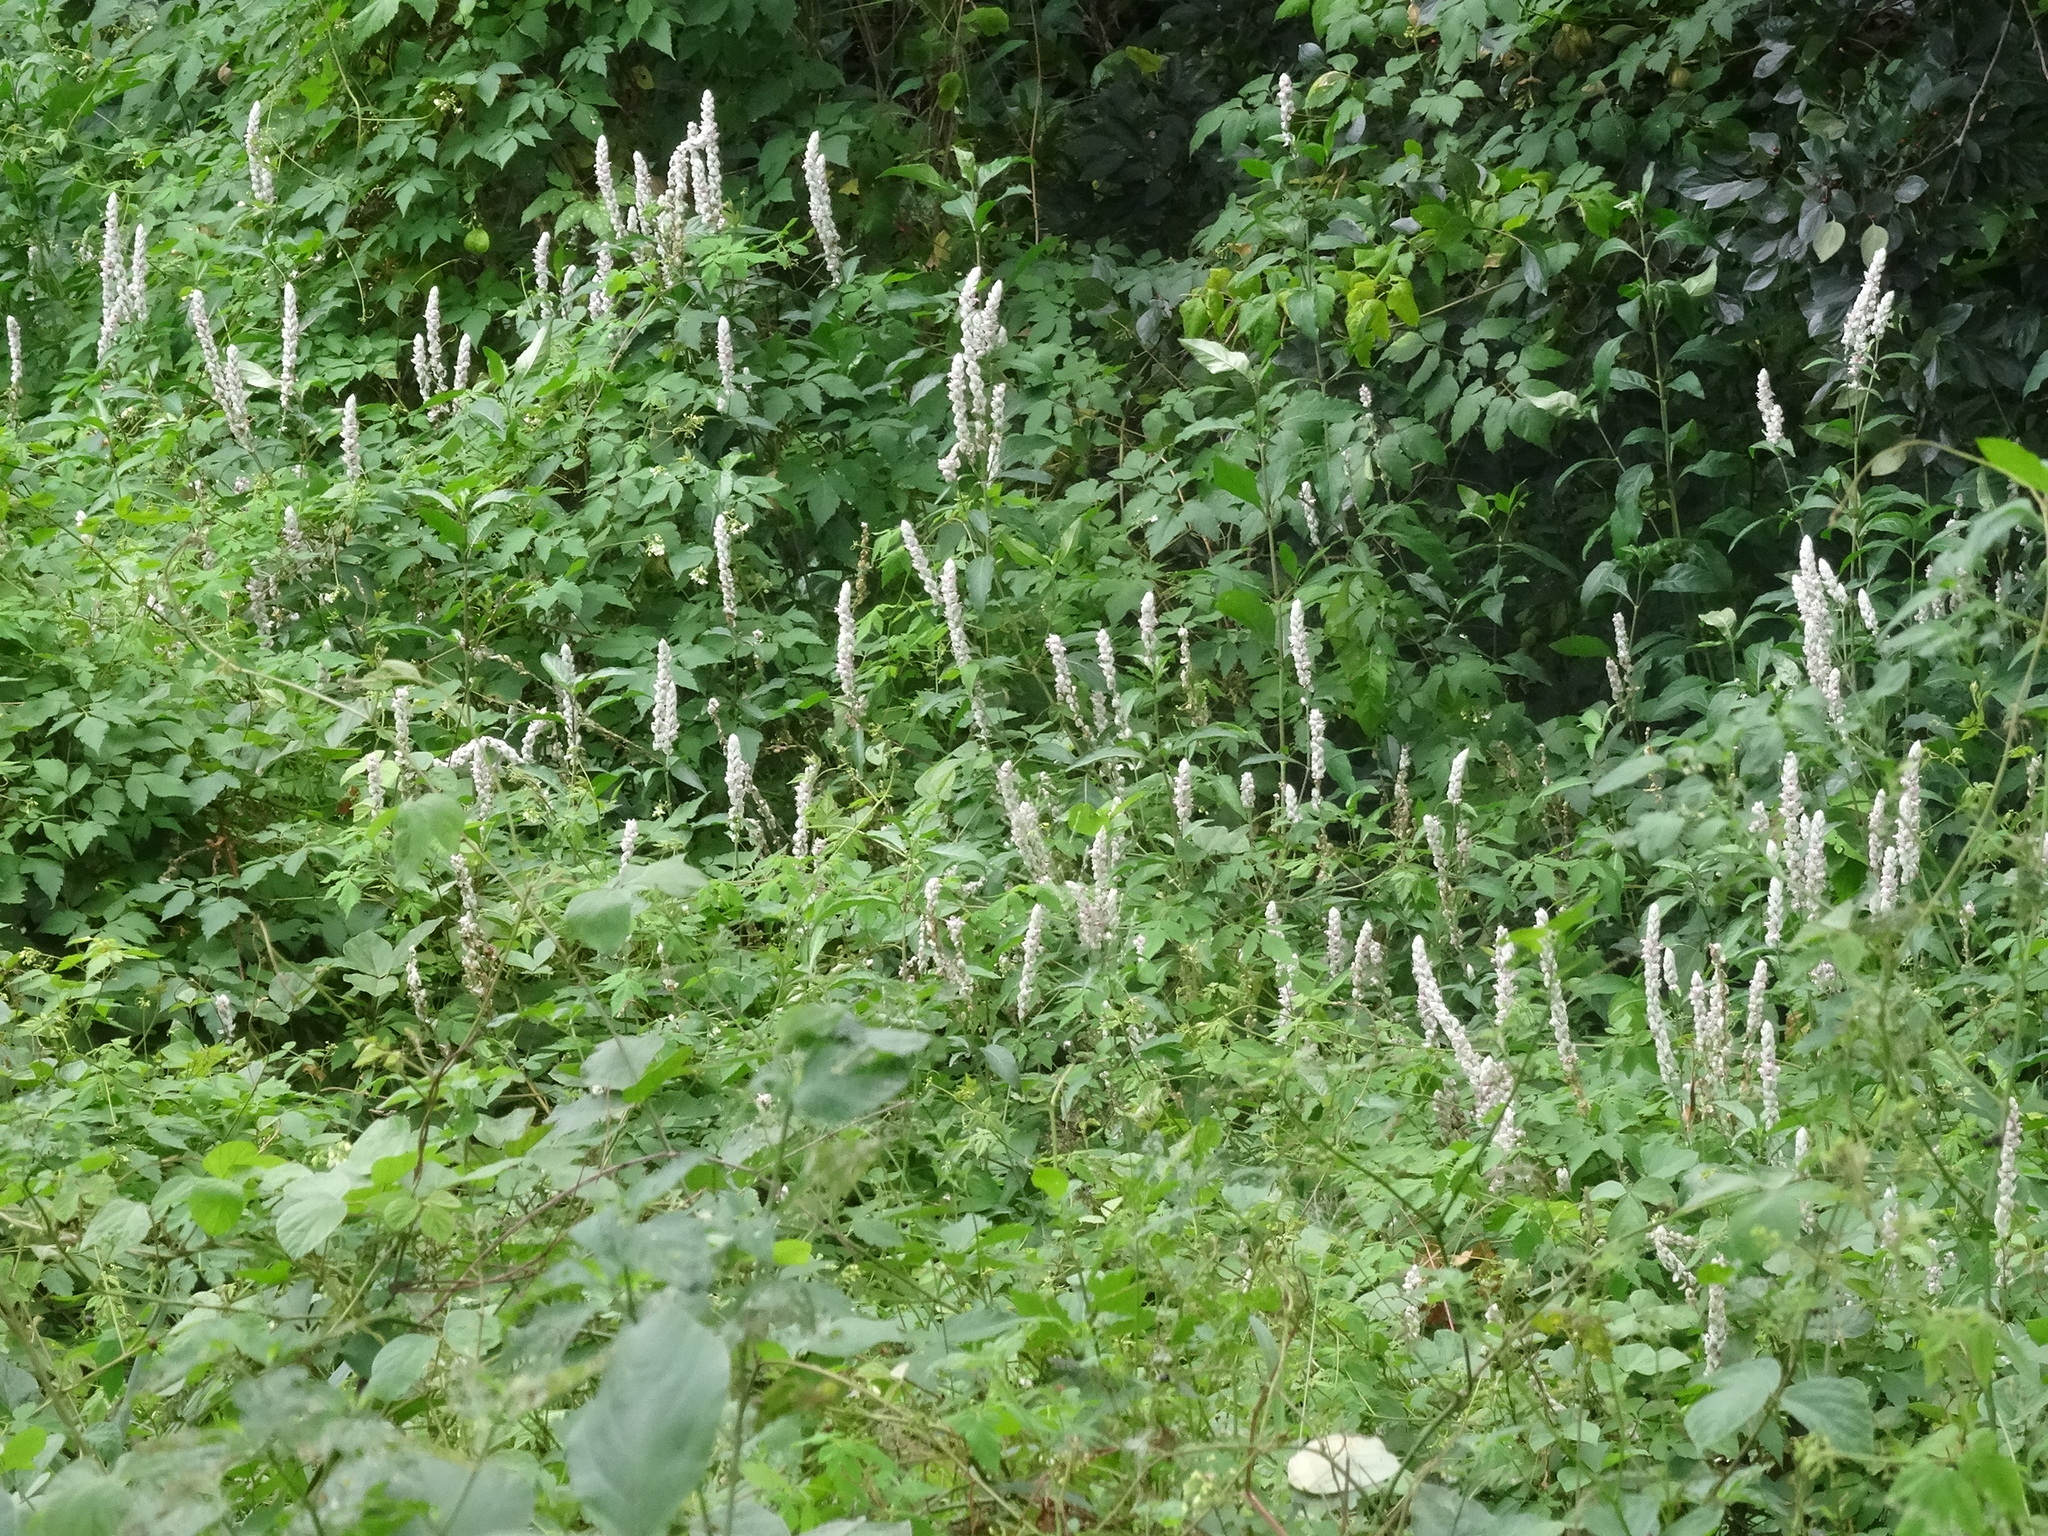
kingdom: Plantae
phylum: Tracheophyta
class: Magnoliopsida
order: Lamiales
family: Acanthaceae
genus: Justicia
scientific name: Justicia betonica
